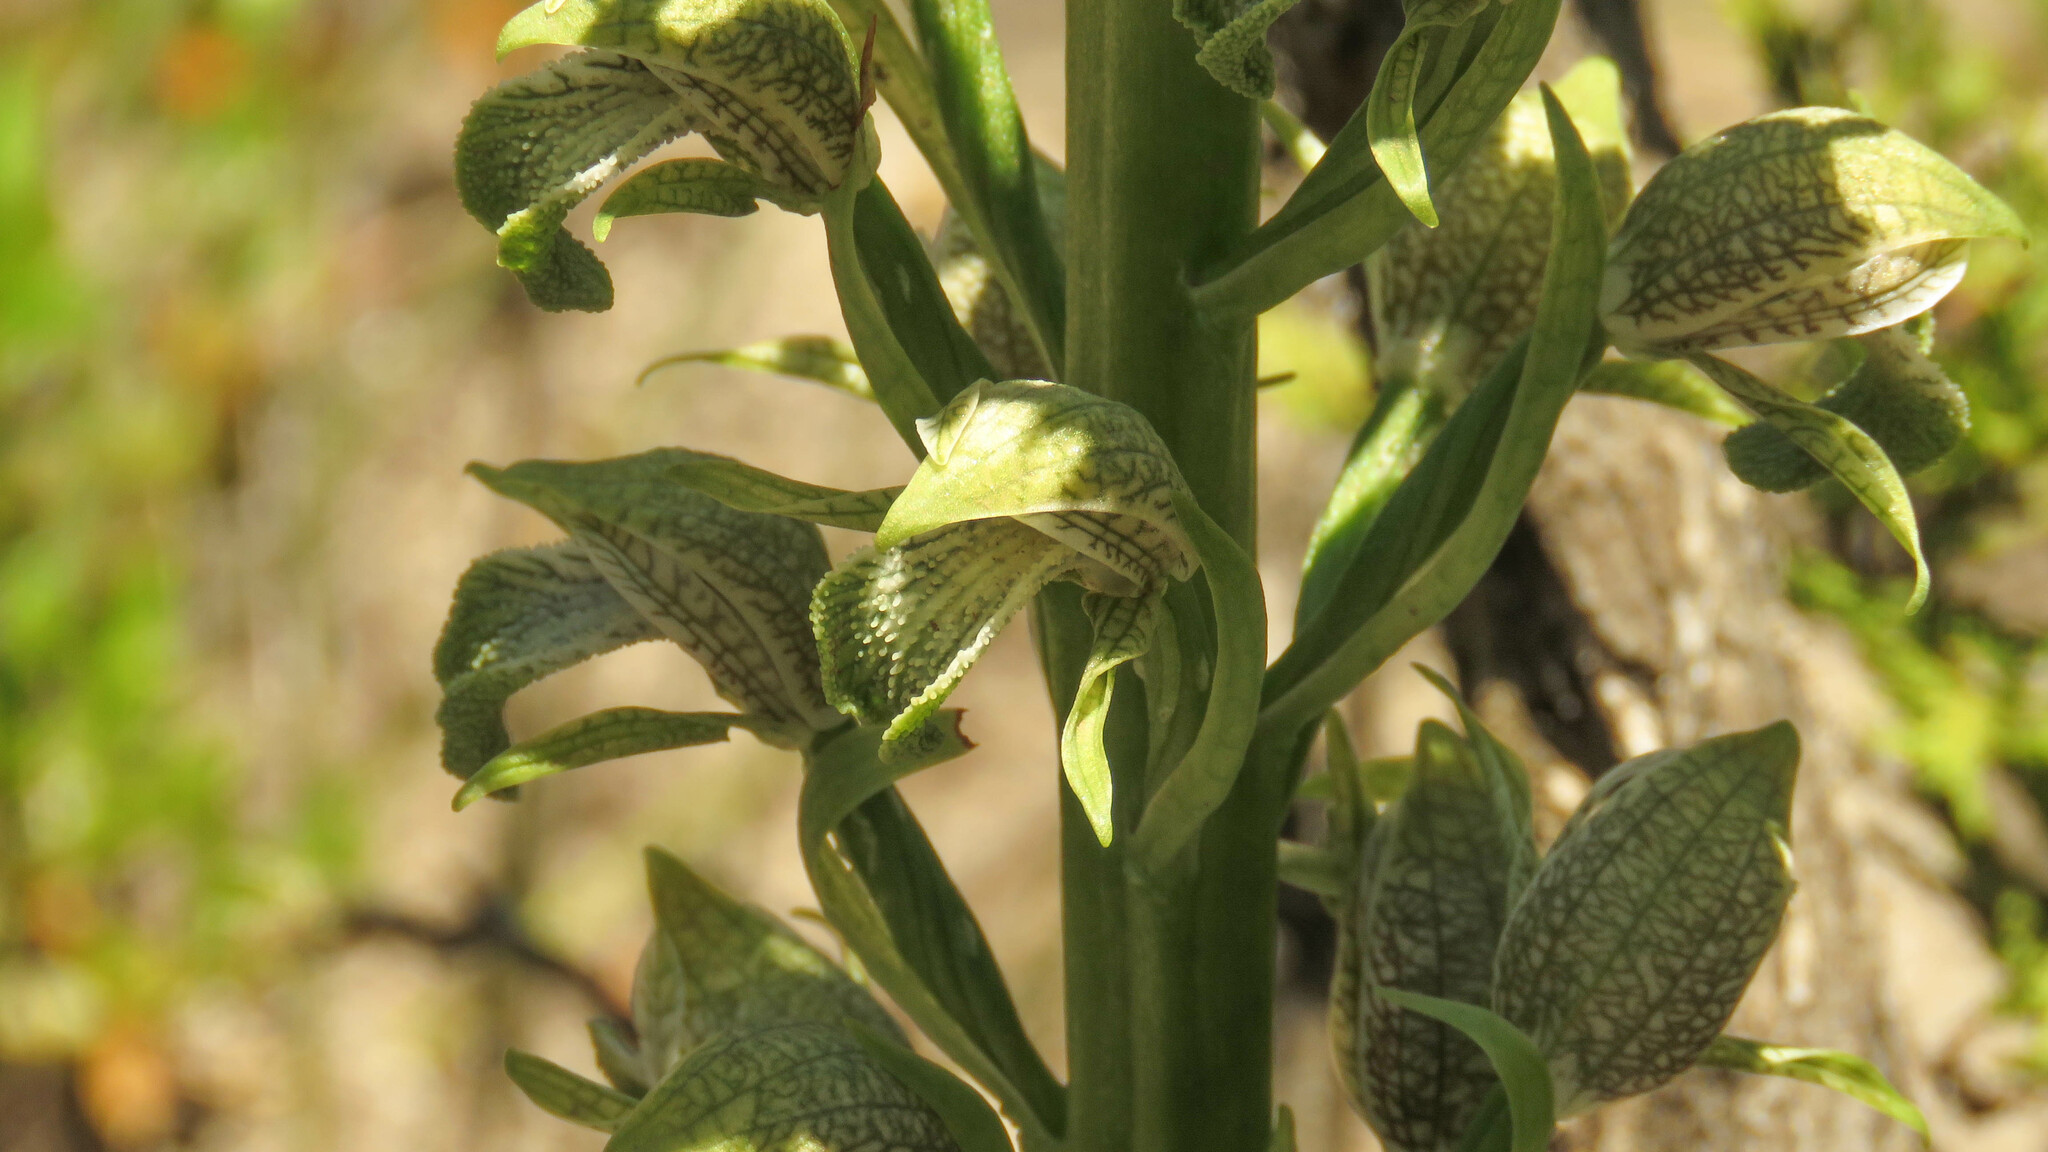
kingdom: Plantae
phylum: Tracheophyta
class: Liliopsida
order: Asparagales
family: Orchidaceae
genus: Chloraea
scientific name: Chloraea cylindrostachya
